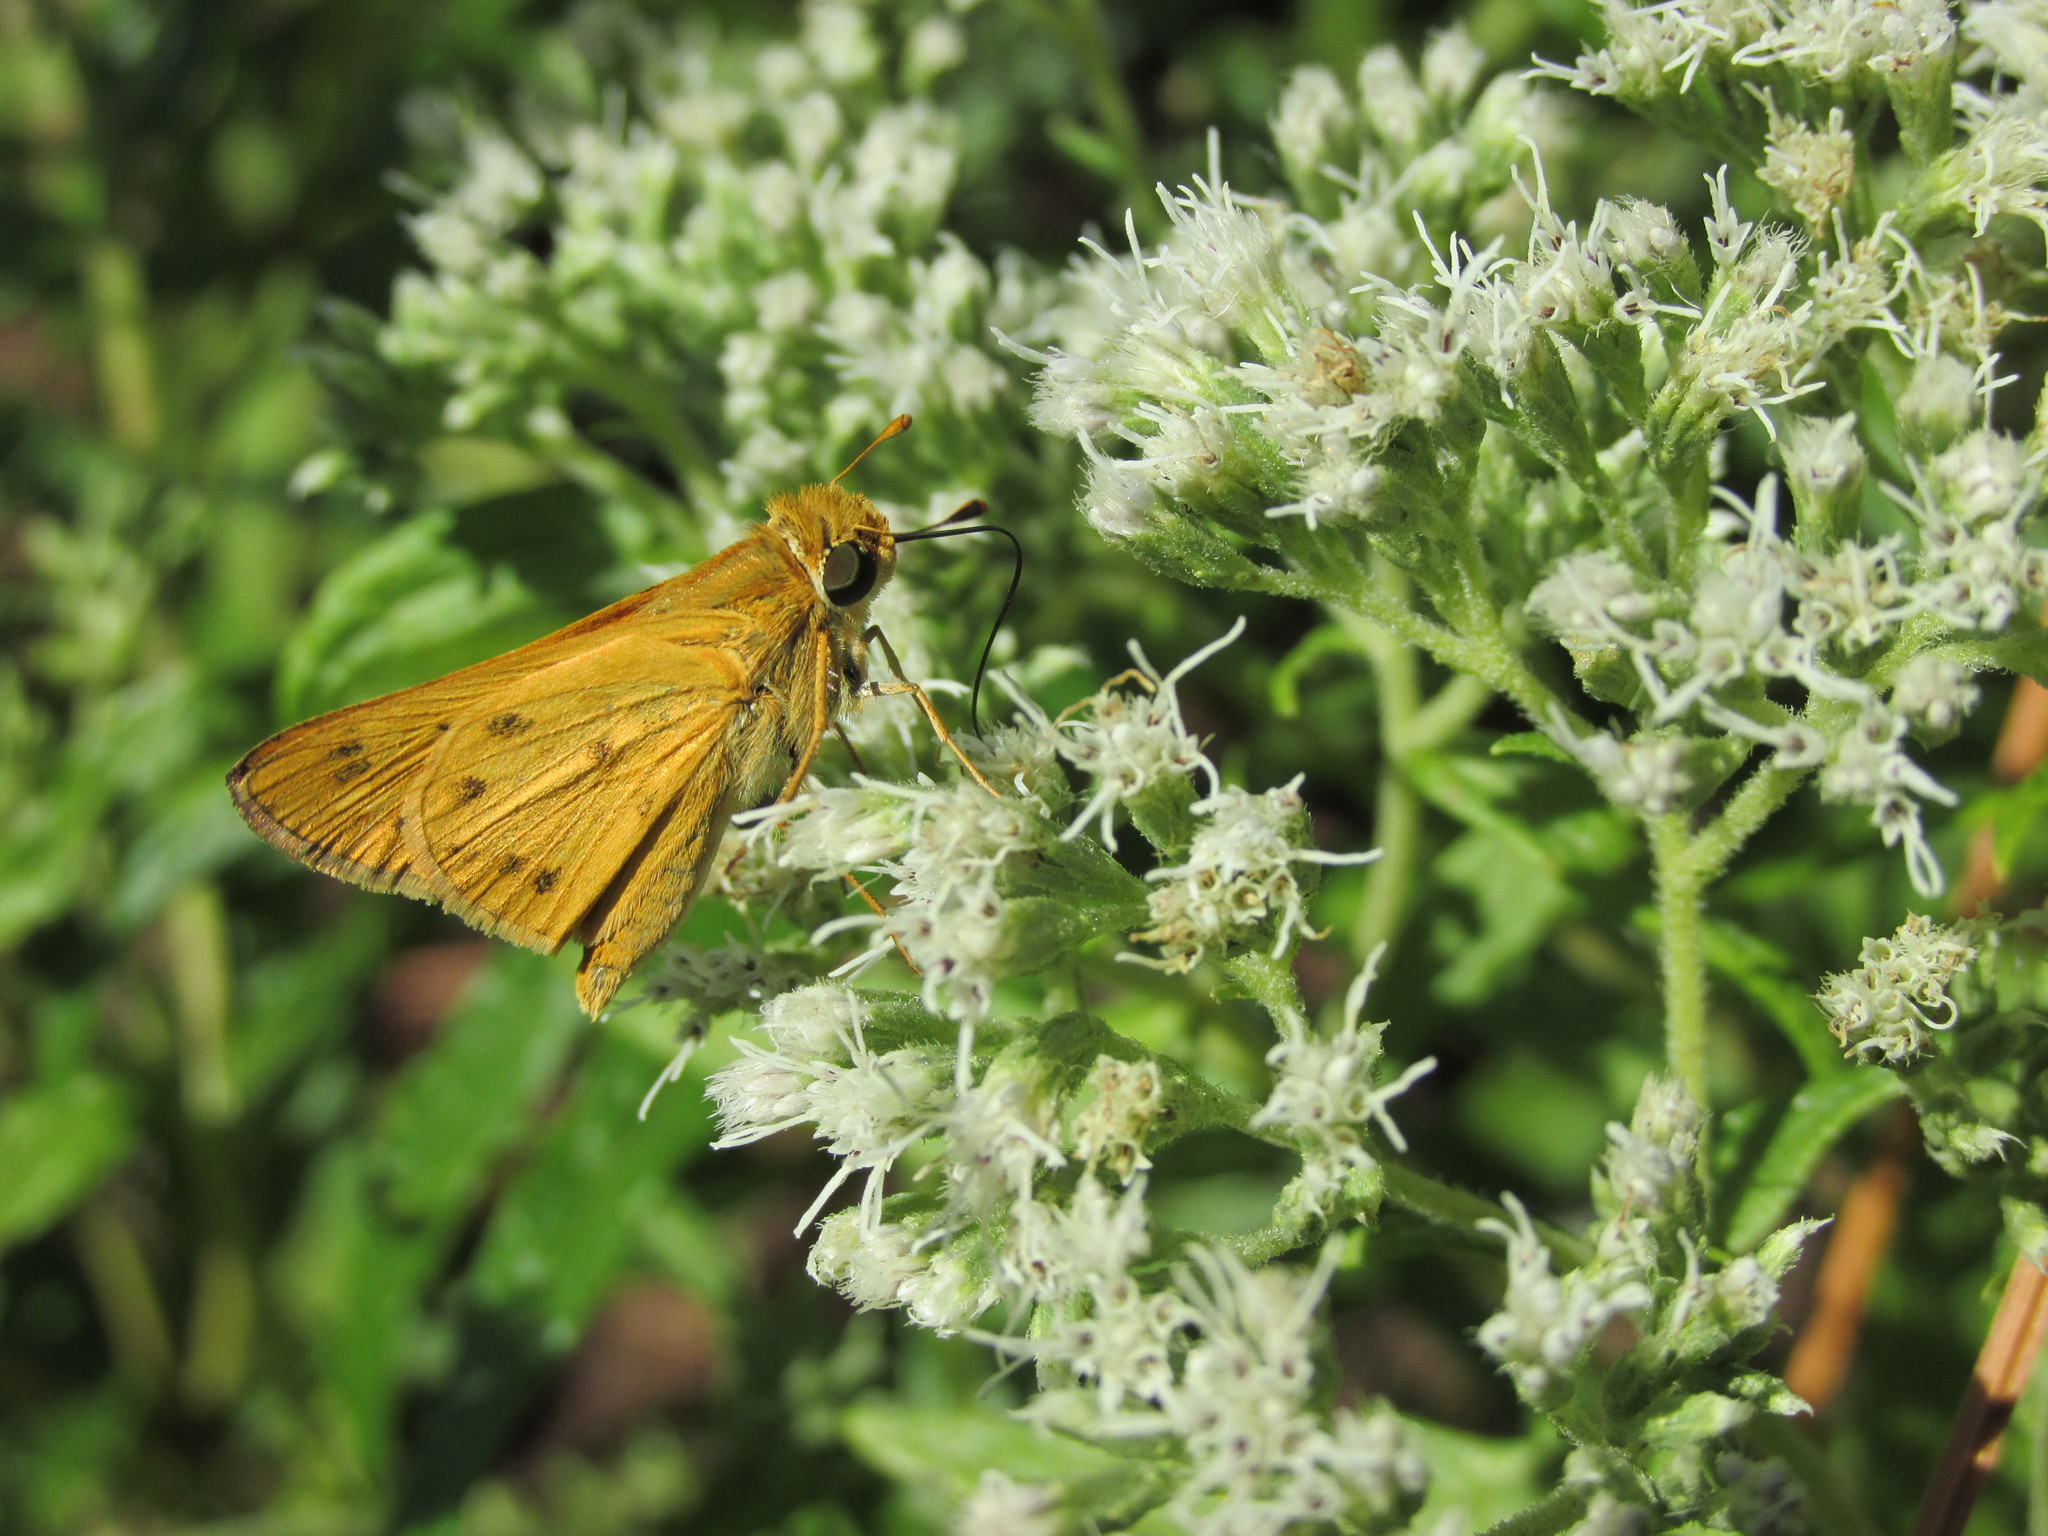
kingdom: Animalia
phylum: Arthropoda
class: Insecta
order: Lepidoptera
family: Hesperiidae
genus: Hylephila
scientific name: Hylephila phyleus
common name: Fiery skipper
